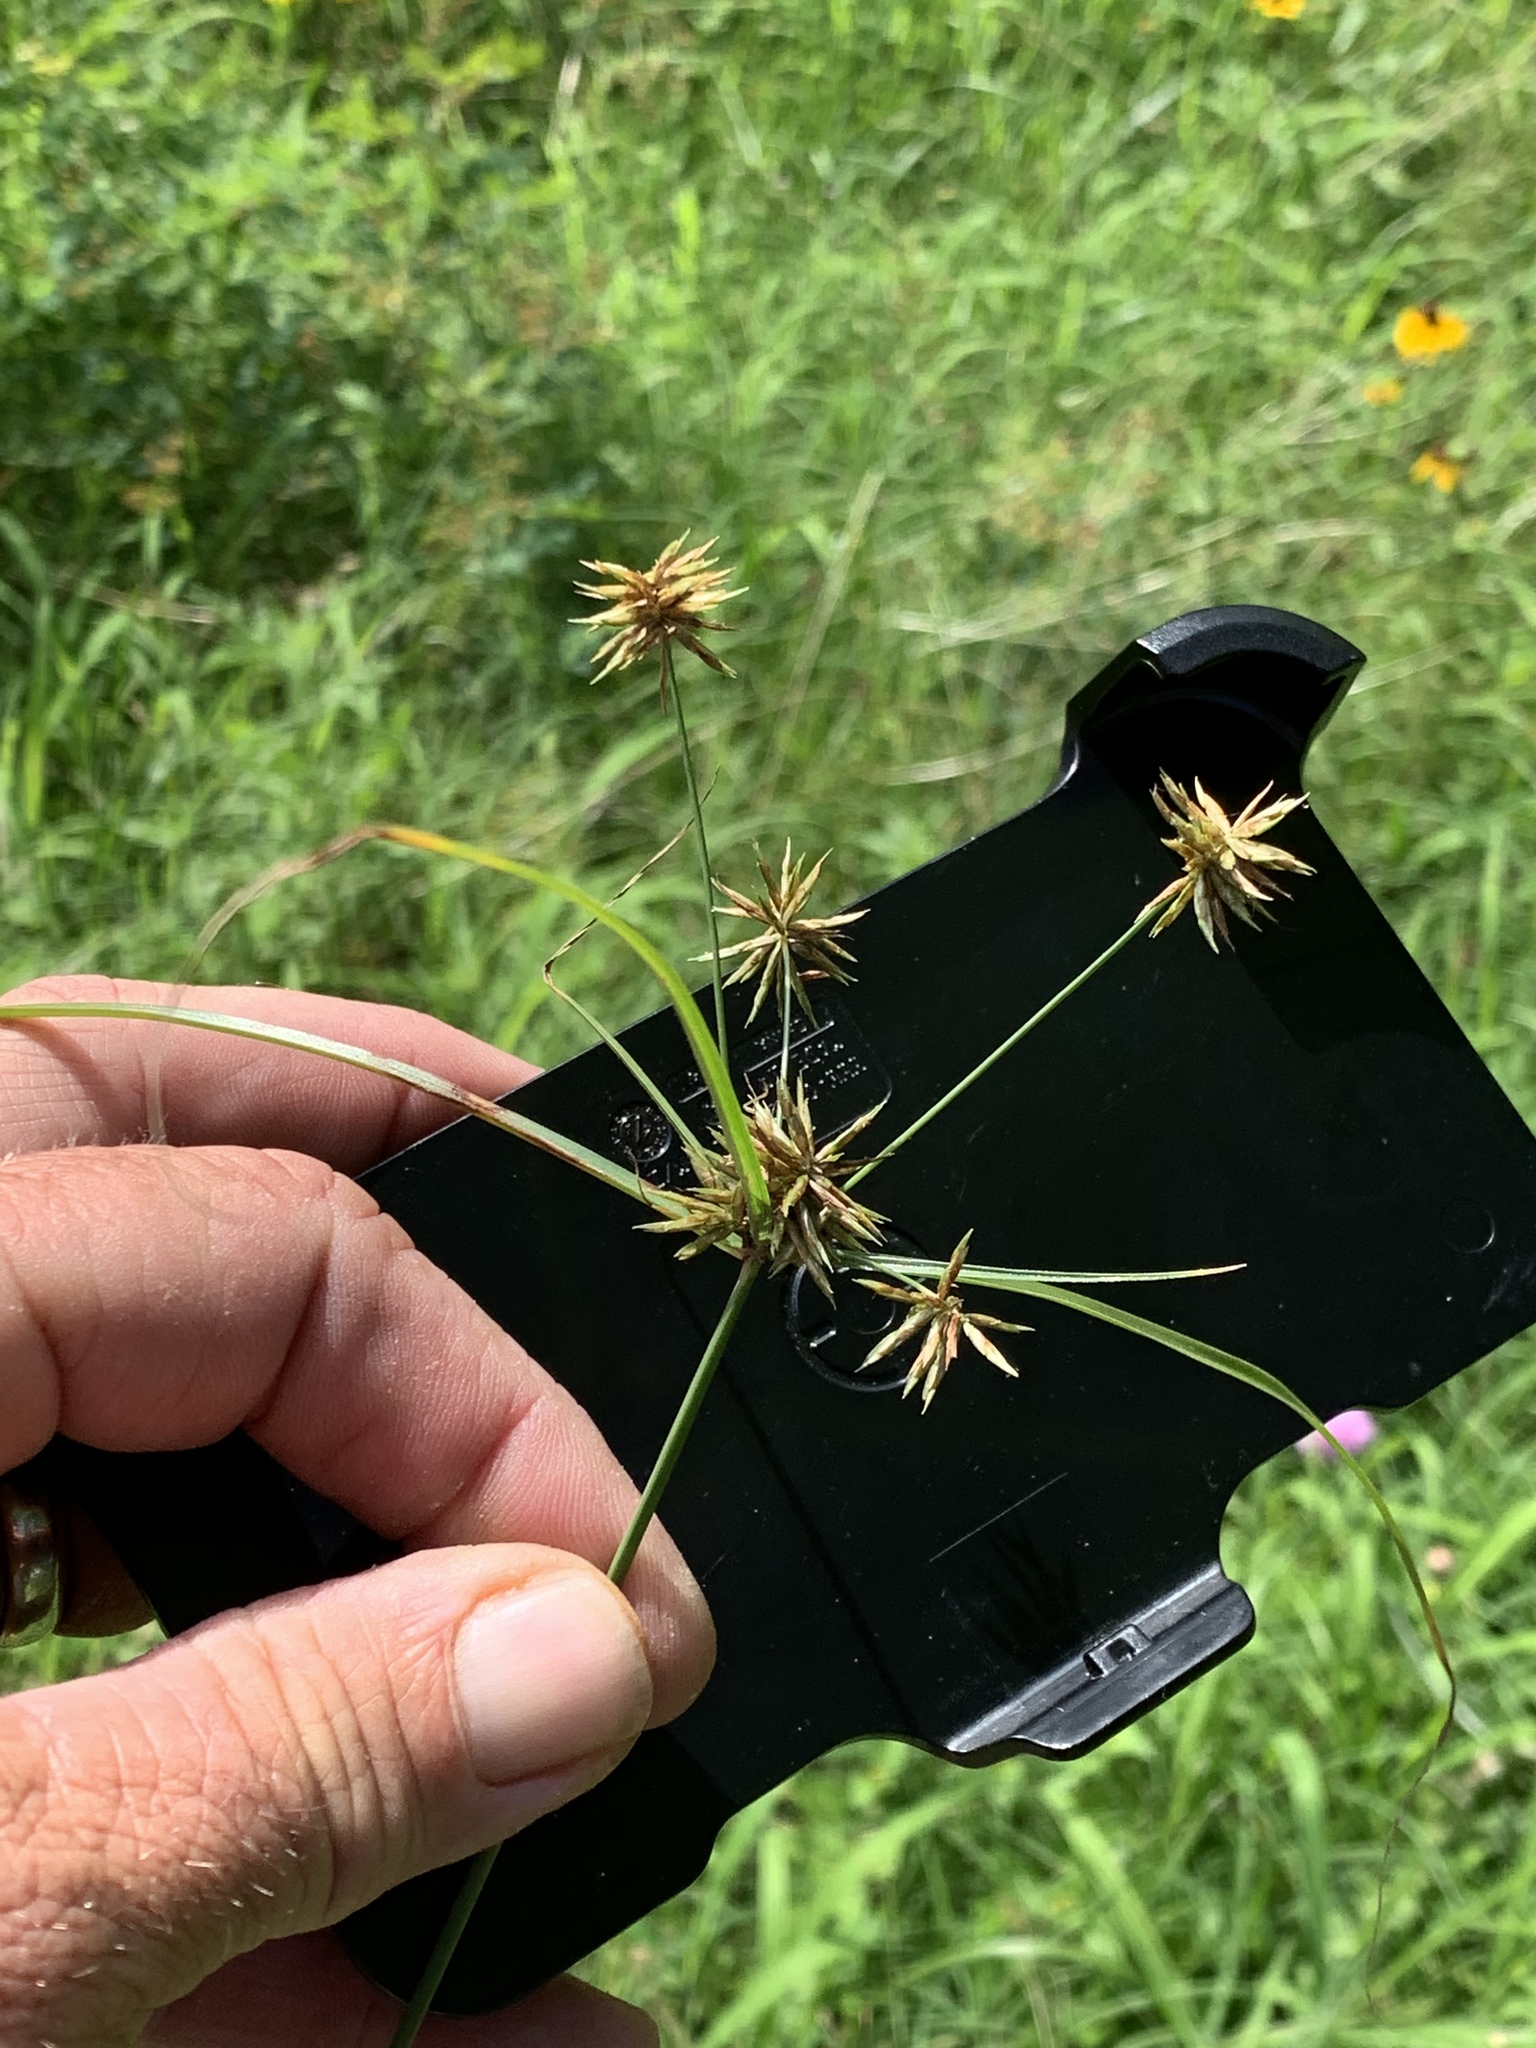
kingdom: Plantae
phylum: Tracheophyta
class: Liliopsida
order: Poales
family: Cyperaceae
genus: Cyperus
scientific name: Cyperus retroflexus
